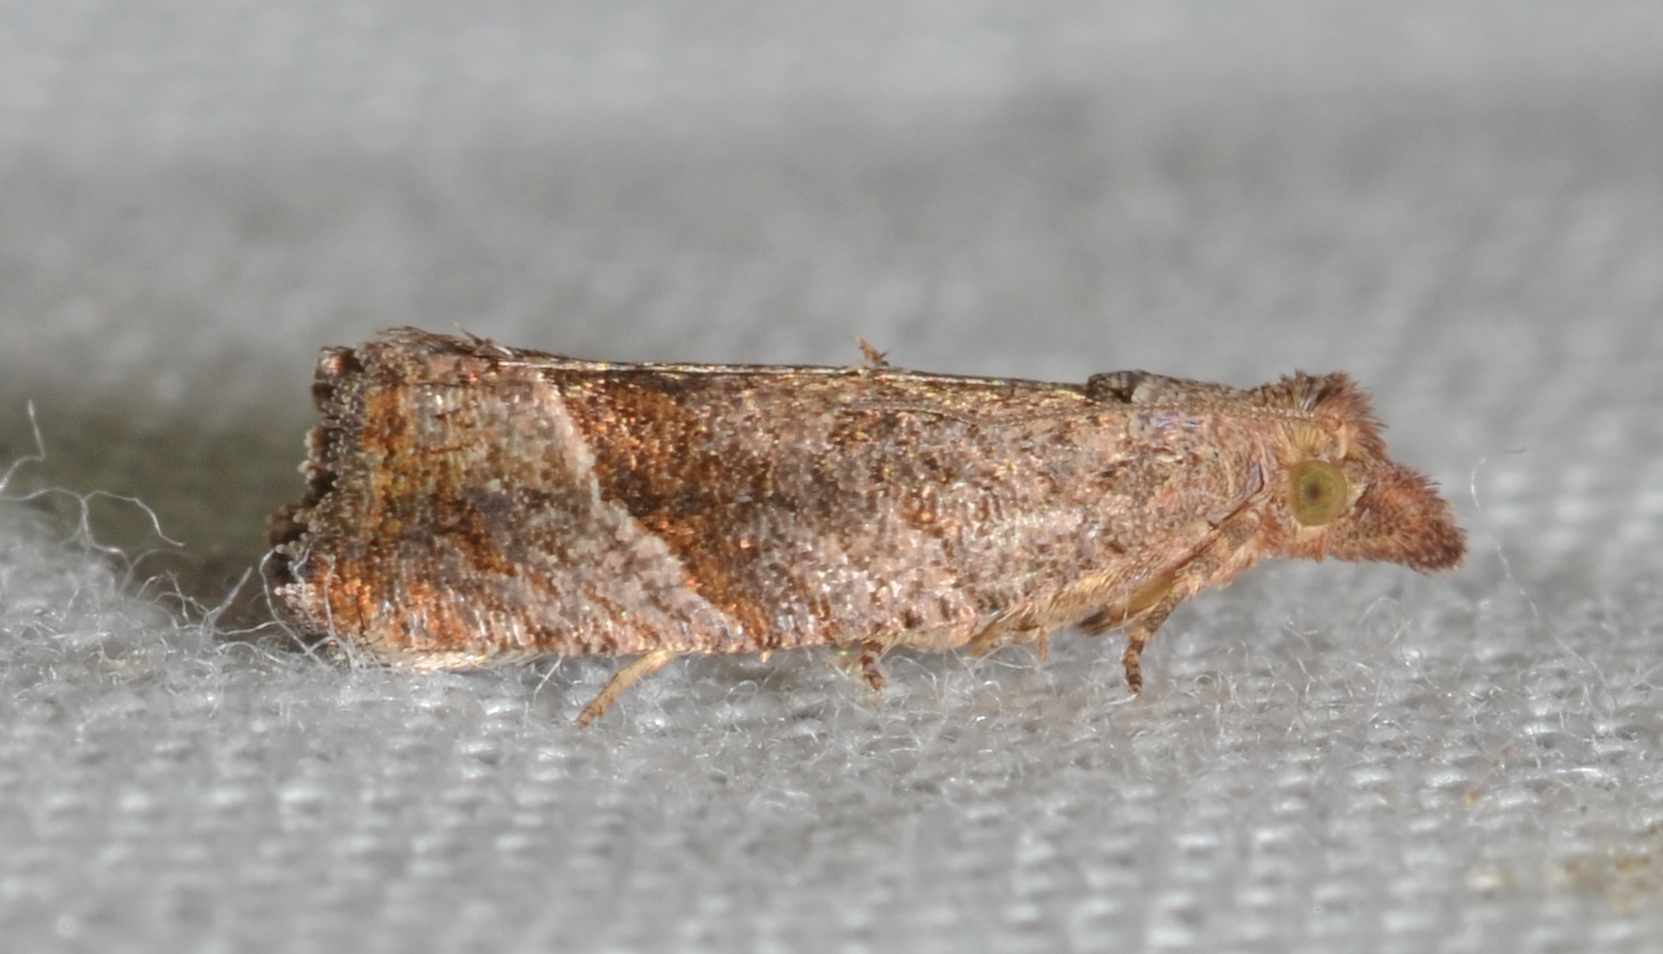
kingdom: Animalia
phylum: Arthropoda
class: Insecta
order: Lepidoptera
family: Tortricidae
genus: Pelochrista
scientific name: Pelochrista derelicta
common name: Derelict pelochrista moth
